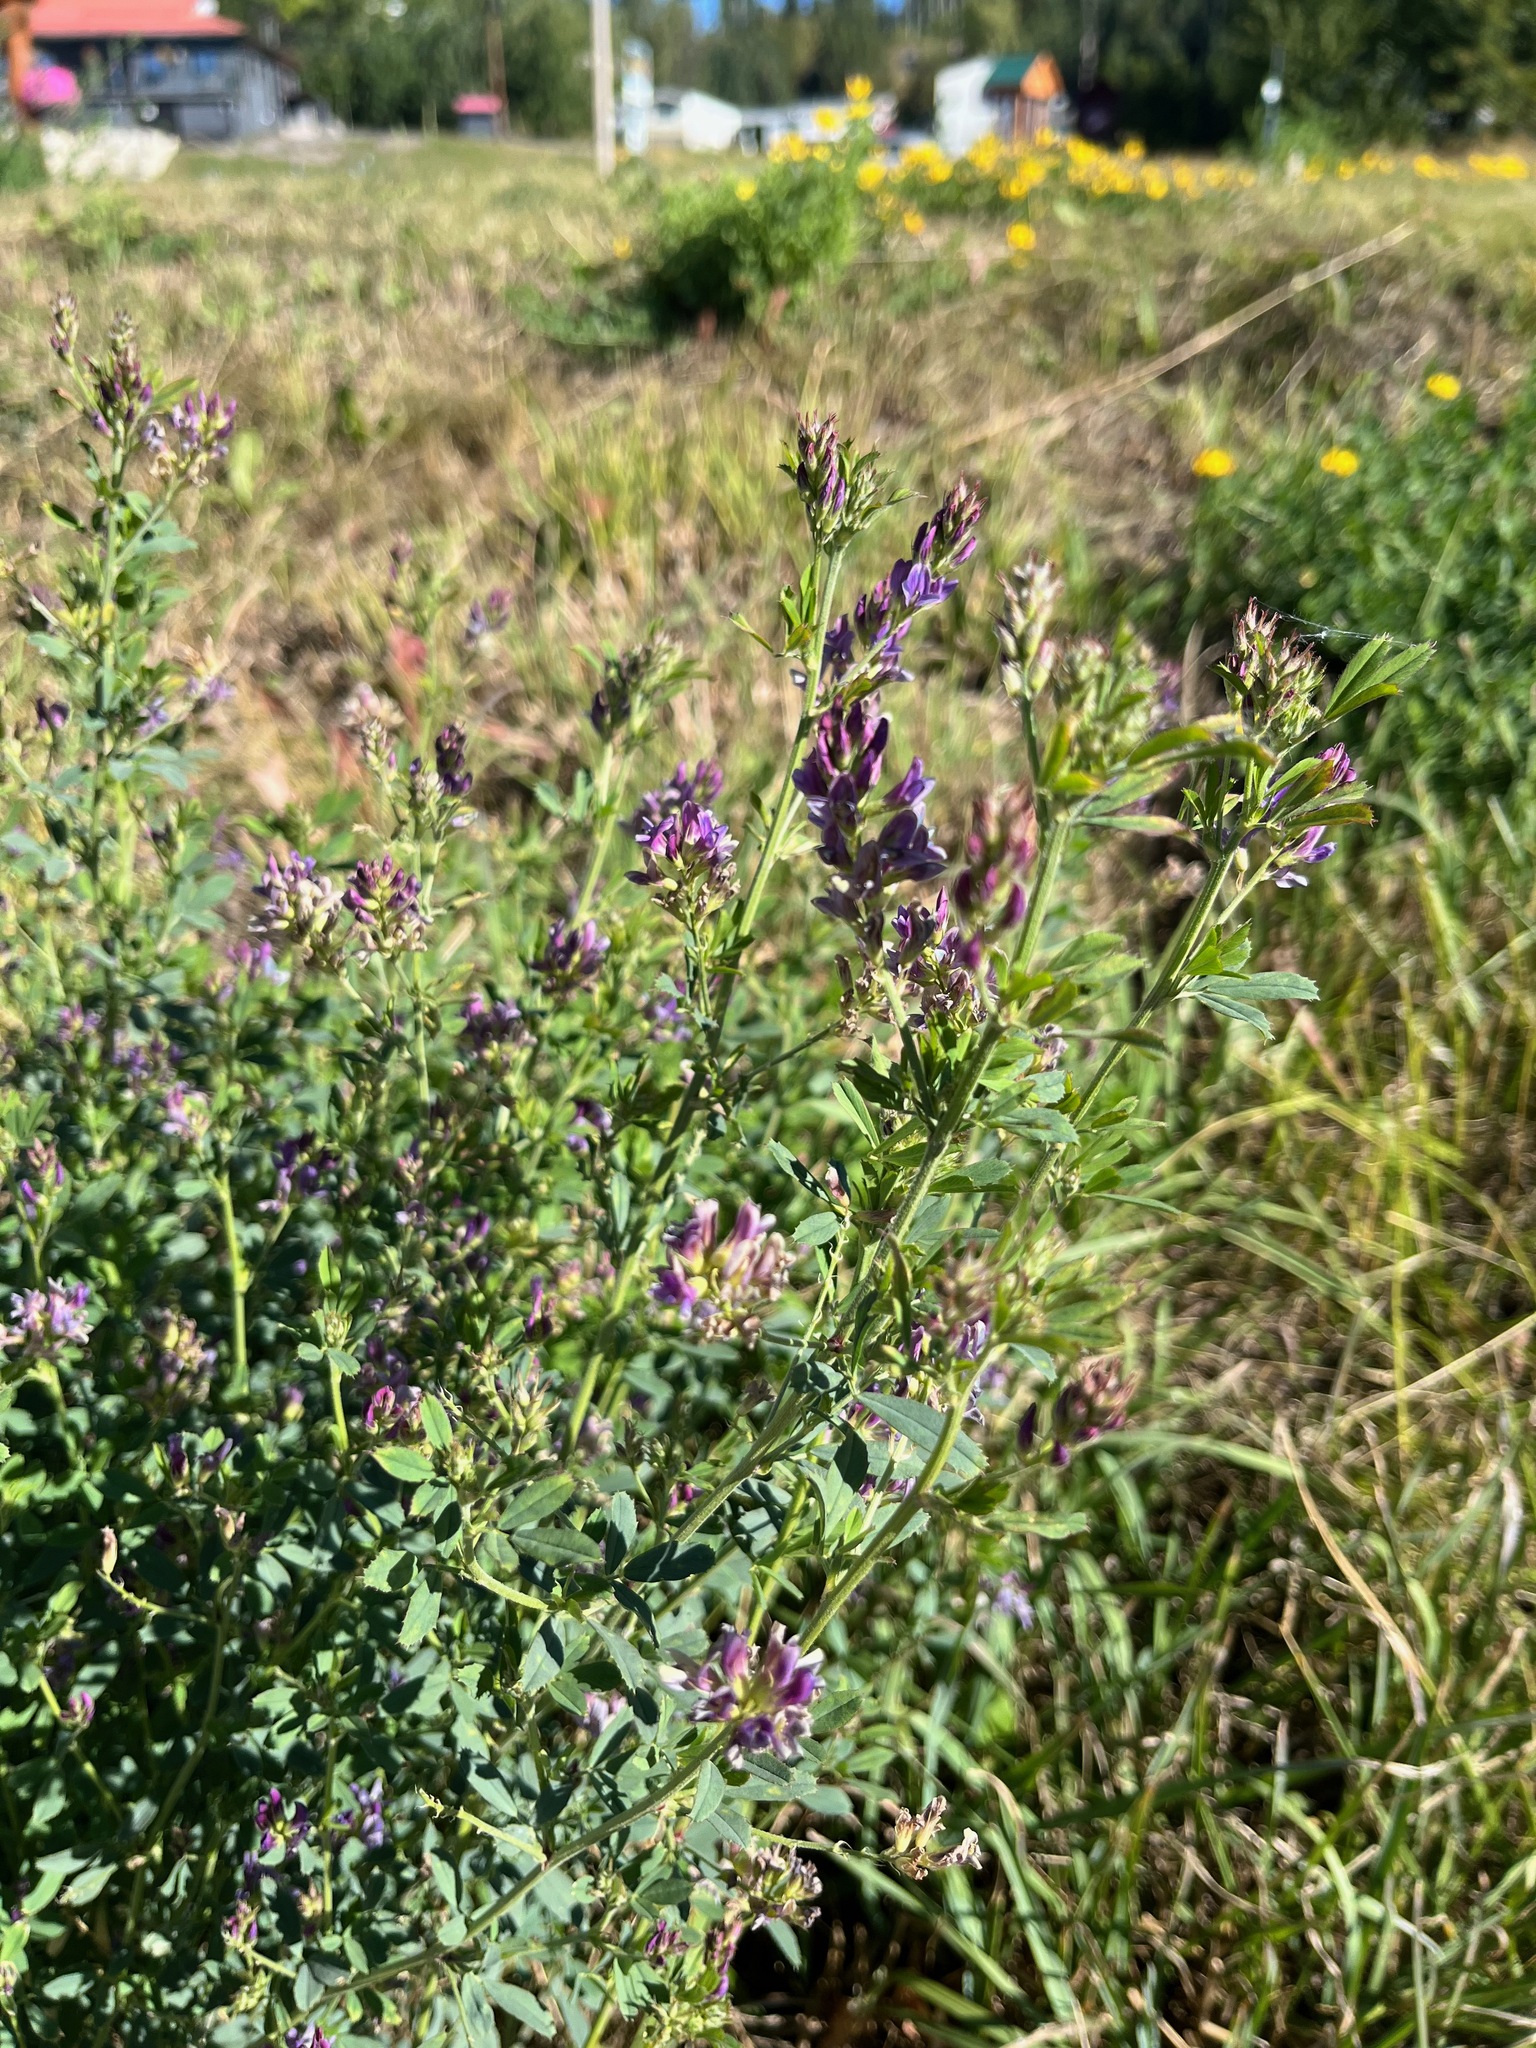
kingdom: Plantae
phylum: Tracheophyta
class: Magnoliopsida
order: Fabales
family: Fabaceae
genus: Medicago
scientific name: Medicago sativa
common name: Alfalfa
